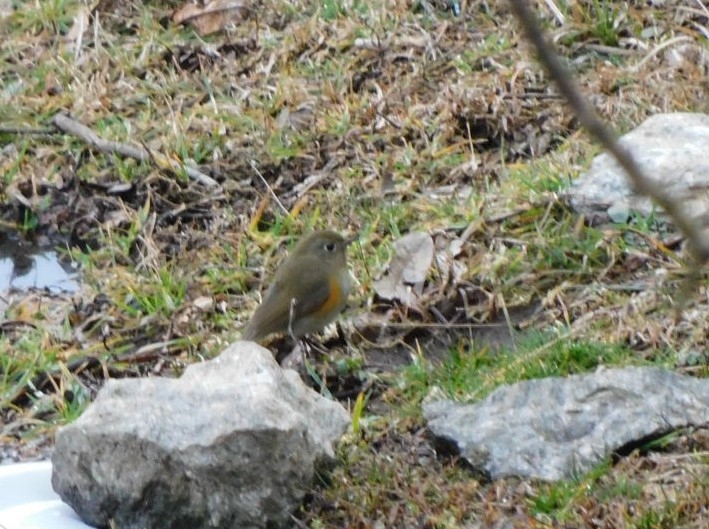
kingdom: Animalia
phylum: Chordata
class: Aves
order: Passeriformes
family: Muscicapidae
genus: Tarsiger
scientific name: Tarsiger rufilatus
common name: Himalayan bluetail
